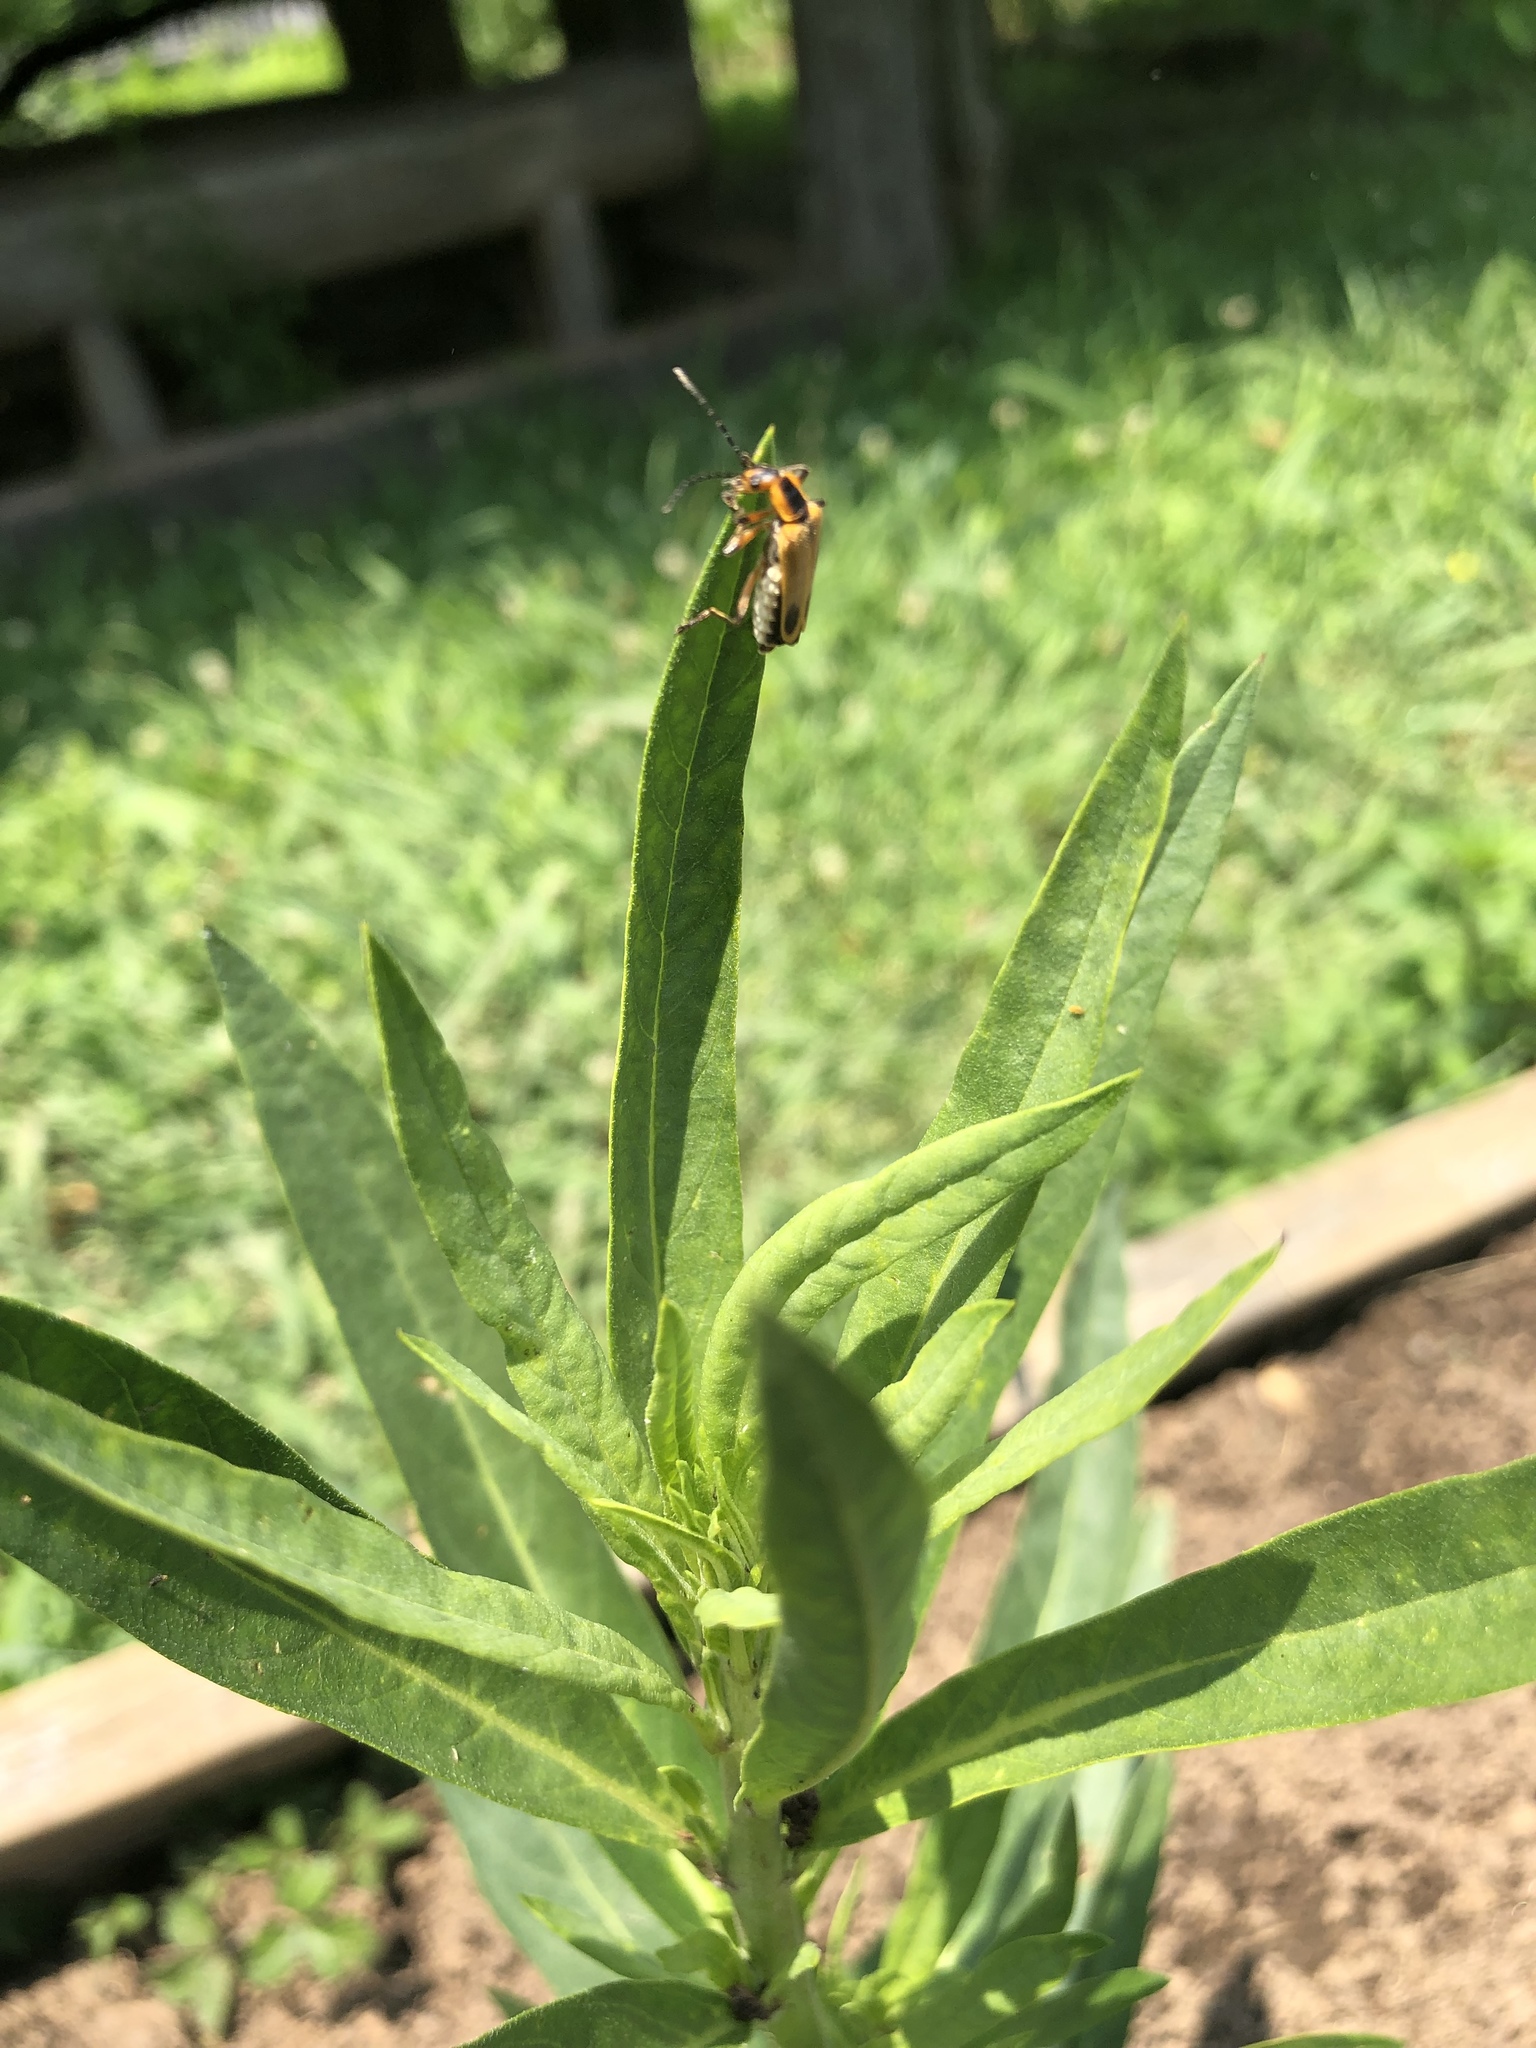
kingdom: Animalia
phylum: Arthropoda
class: Insecta
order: Coleoptera
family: Cantharidae
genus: Chauliognathus
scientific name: Chauliognathus marginatus
